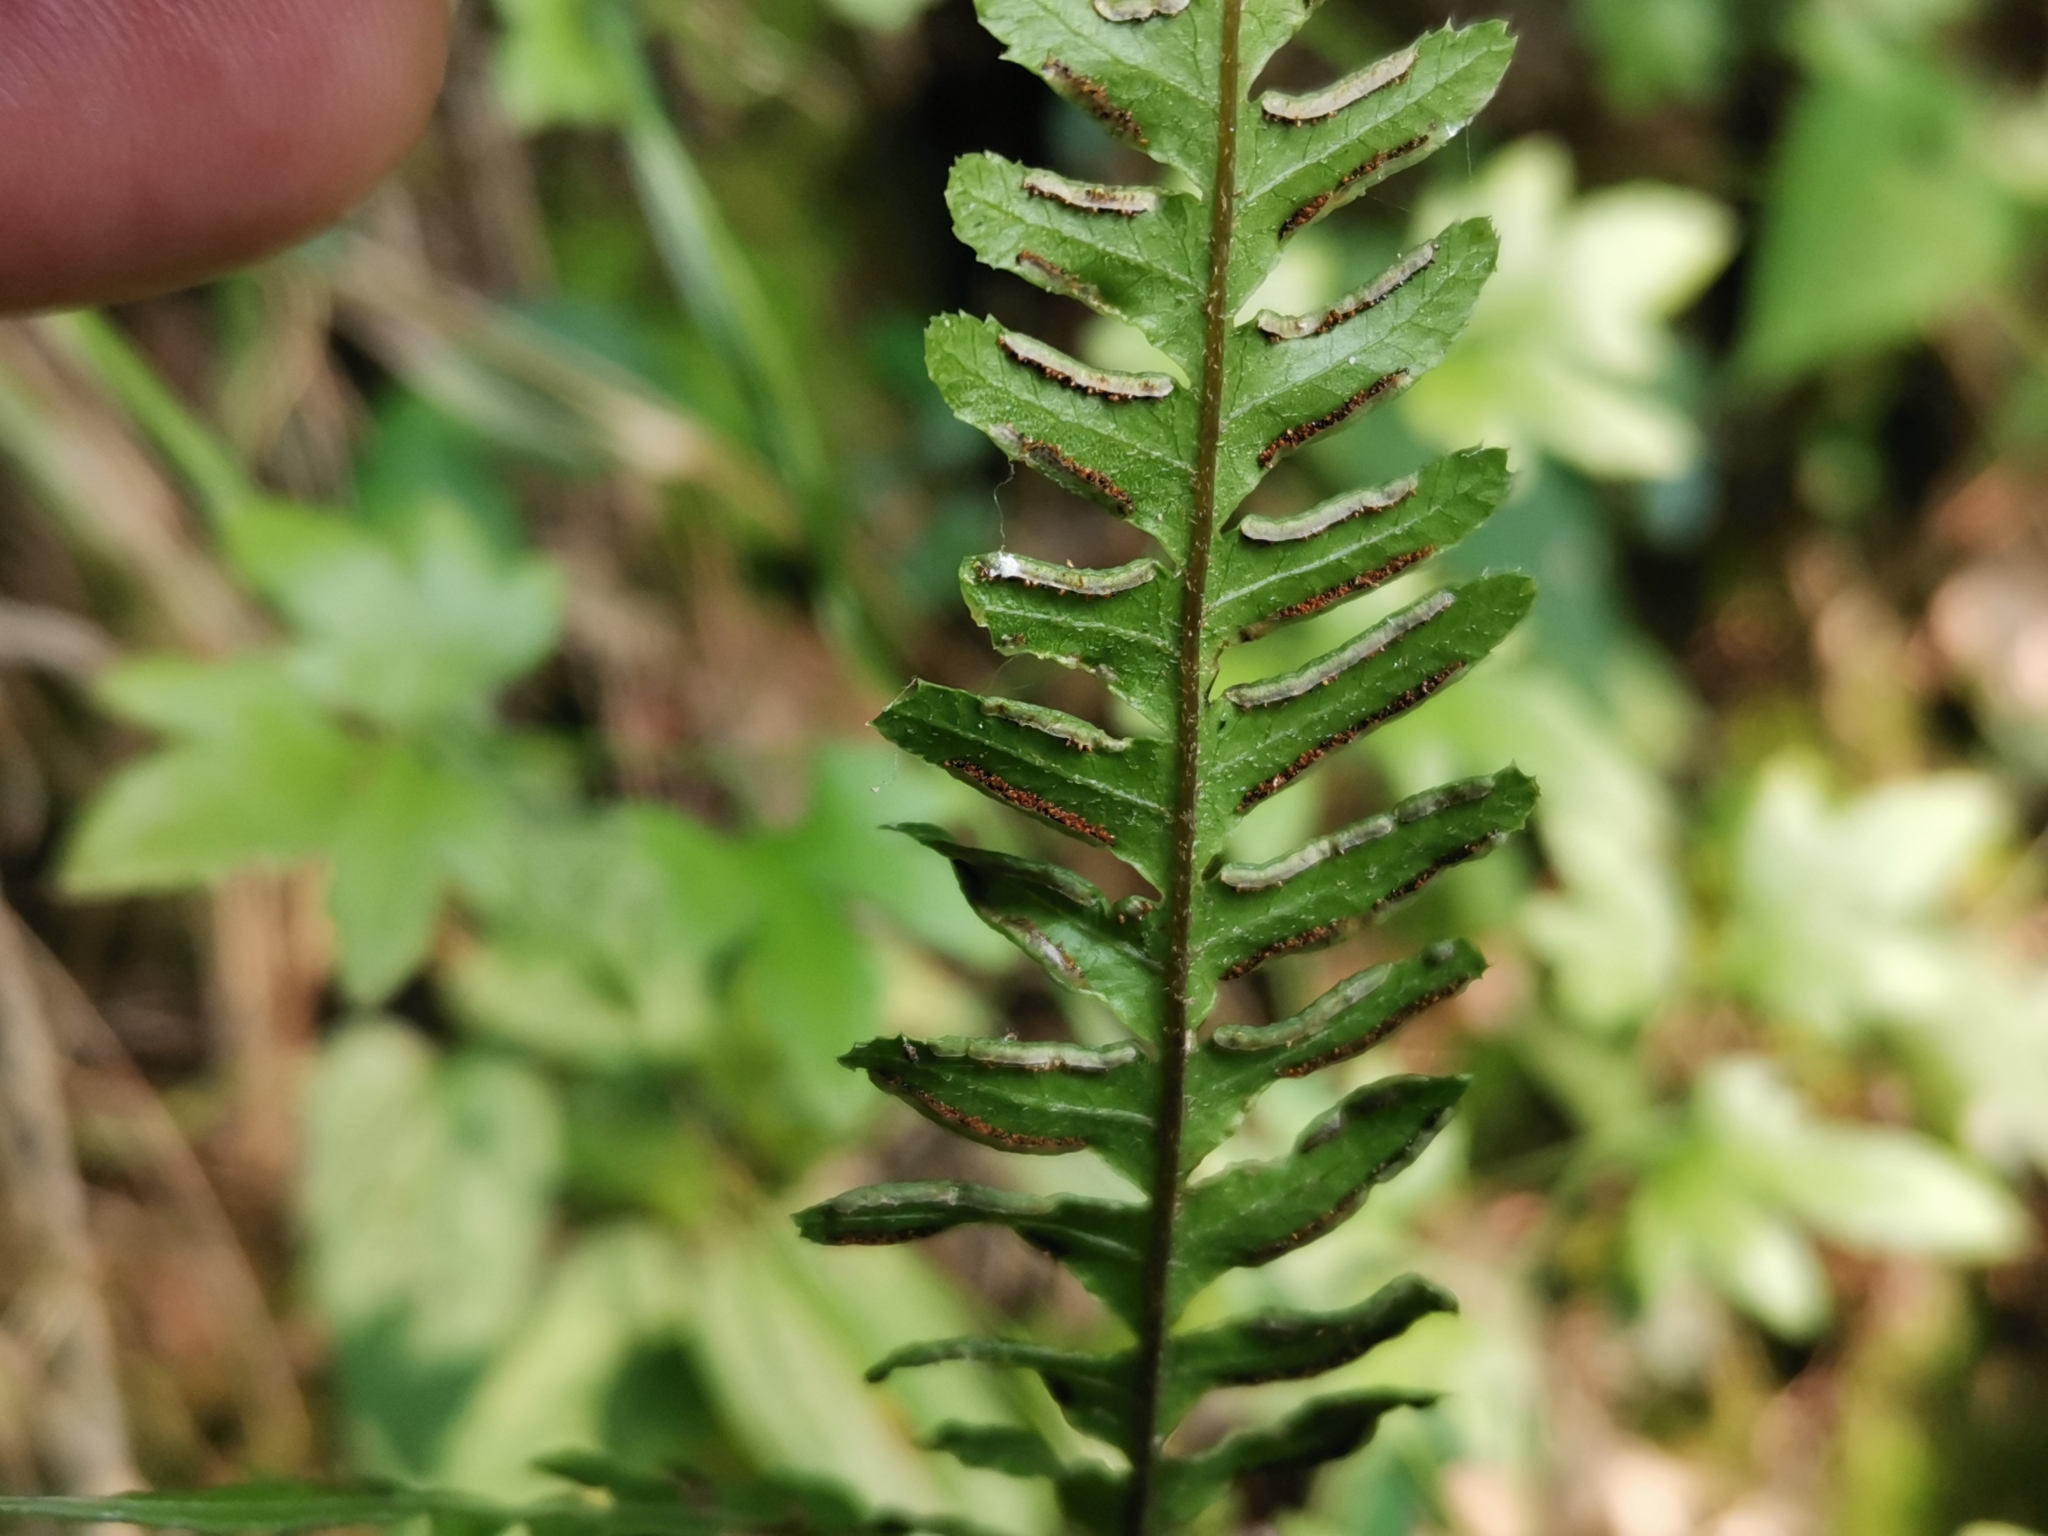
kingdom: Plantae
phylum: Tracheophyta
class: Polypodiopsida
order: Polypodiales
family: Pteridaceae
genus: Pteris
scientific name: Pteris dispar
